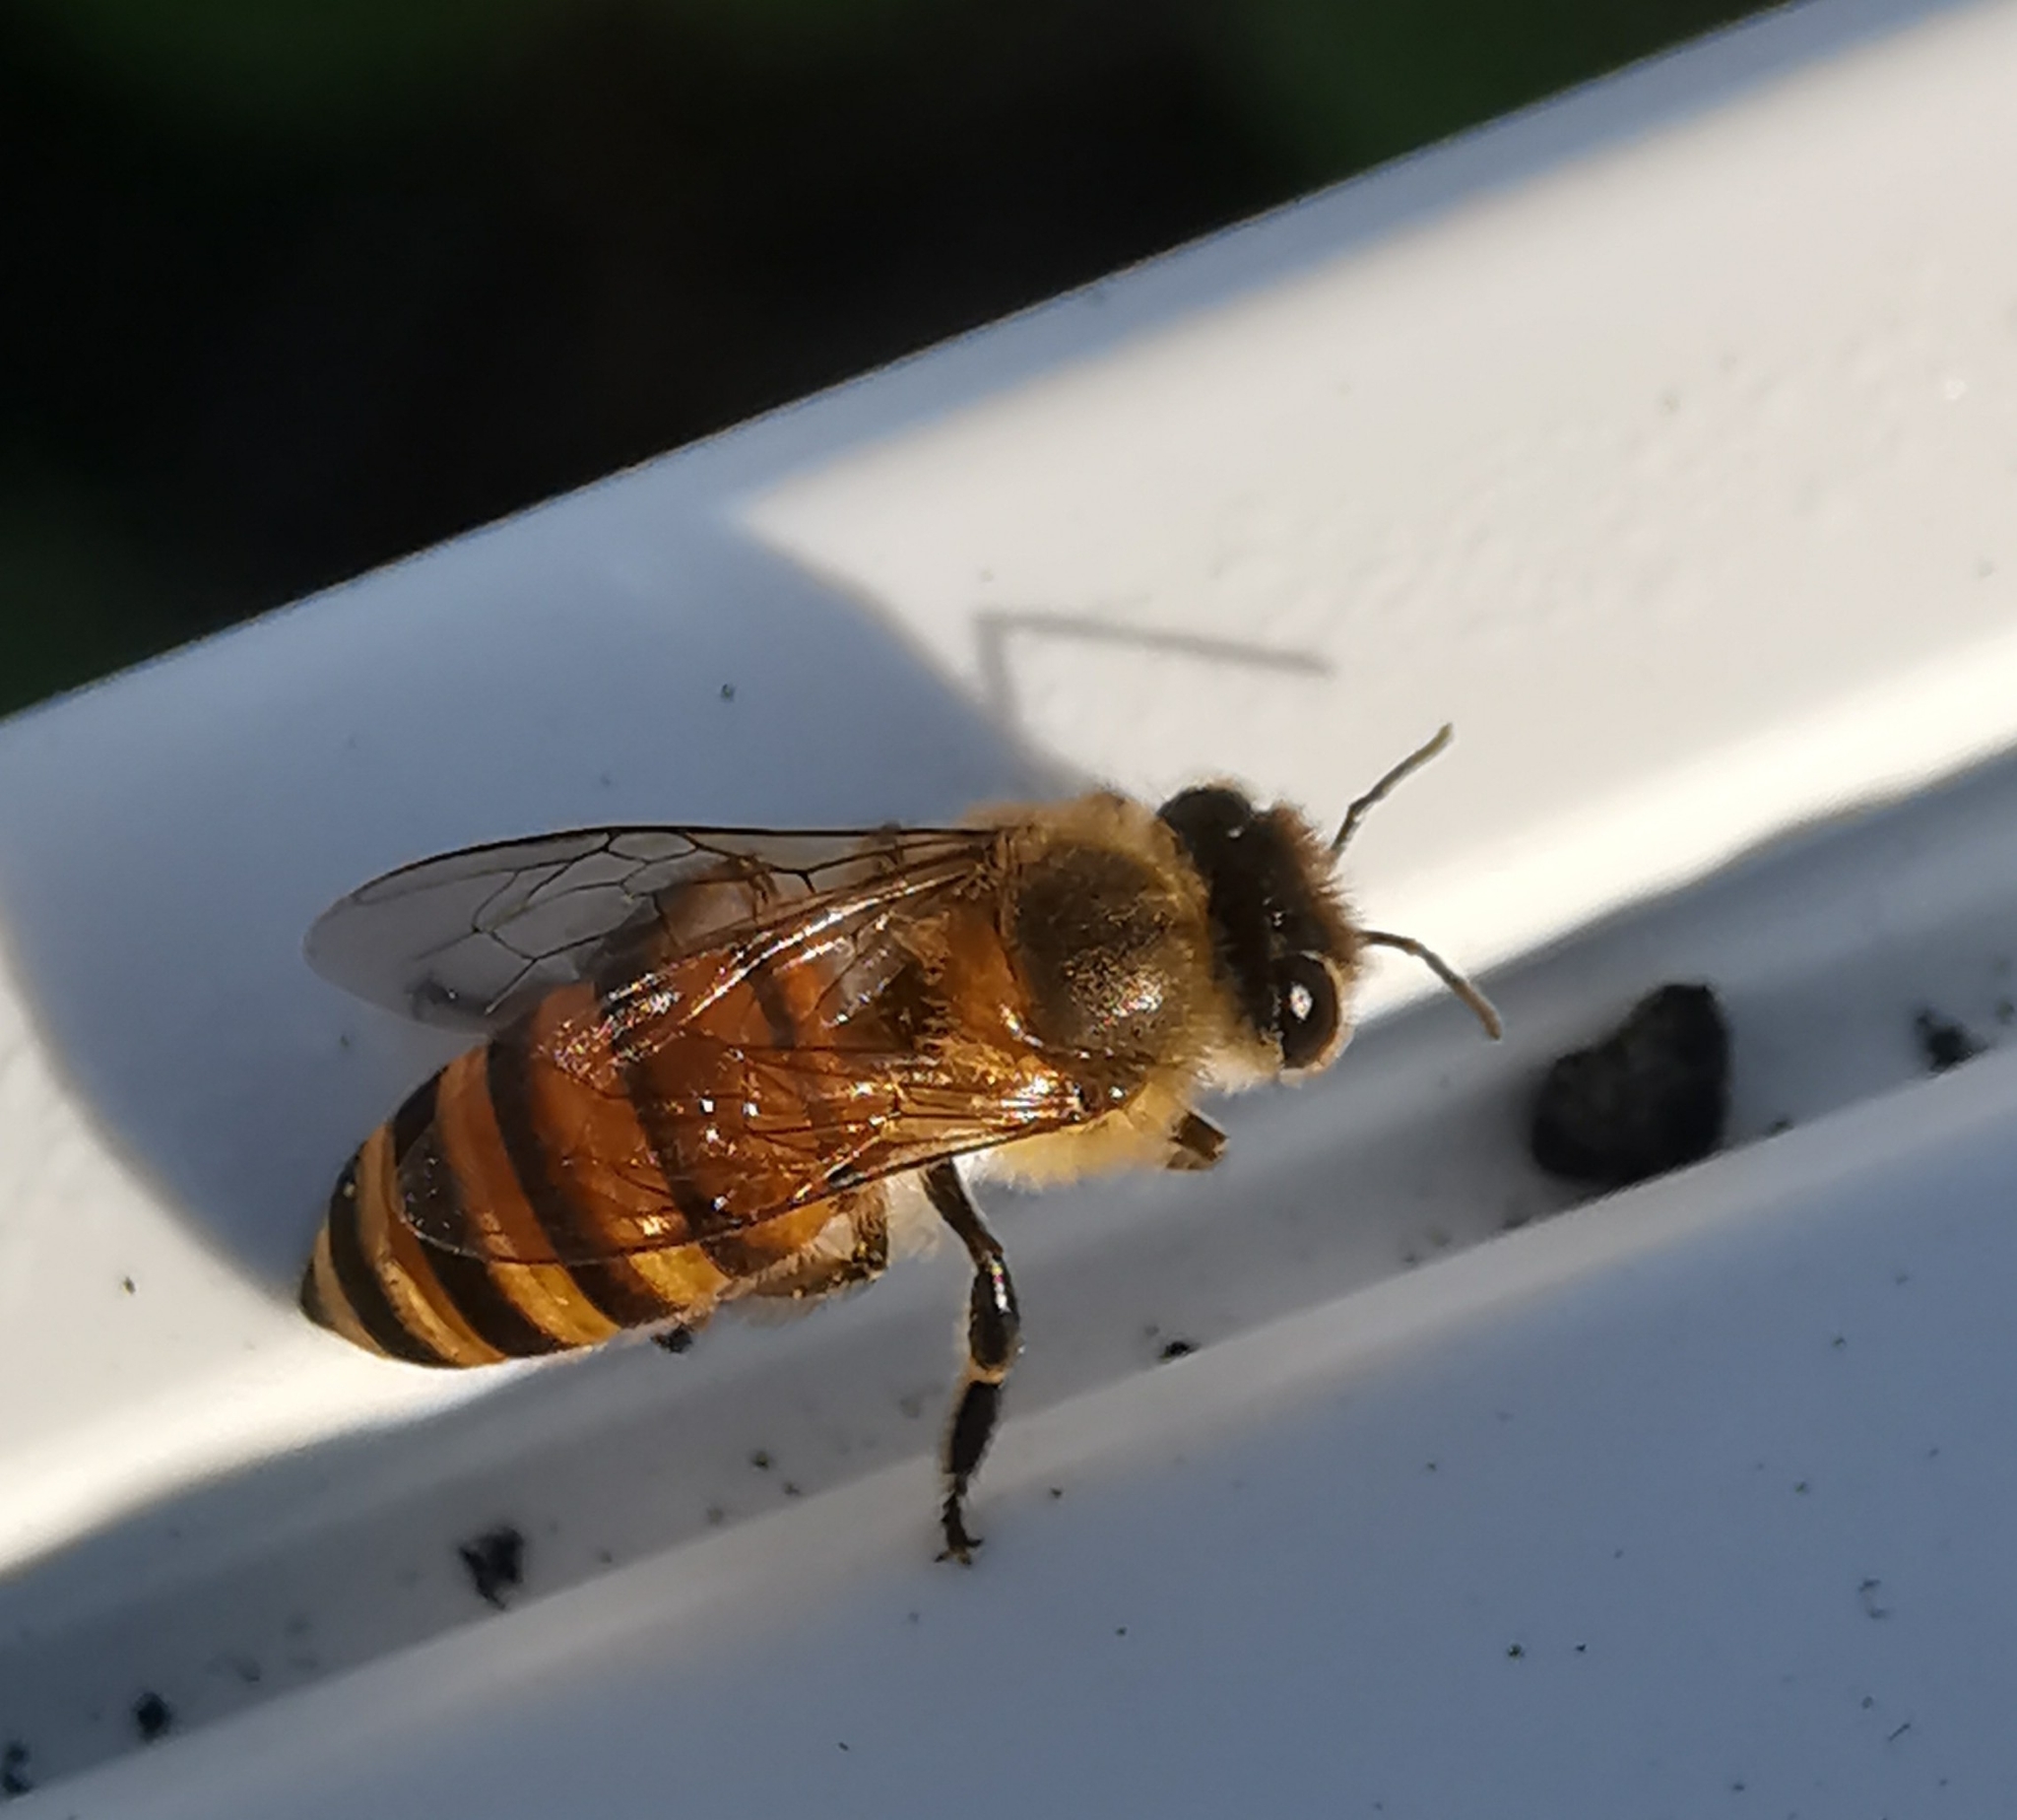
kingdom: Animalia
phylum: Arthropoda
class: Insecta
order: Hymenoptera
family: Apidae
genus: Apis
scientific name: Apis cerana
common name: Honey bee
